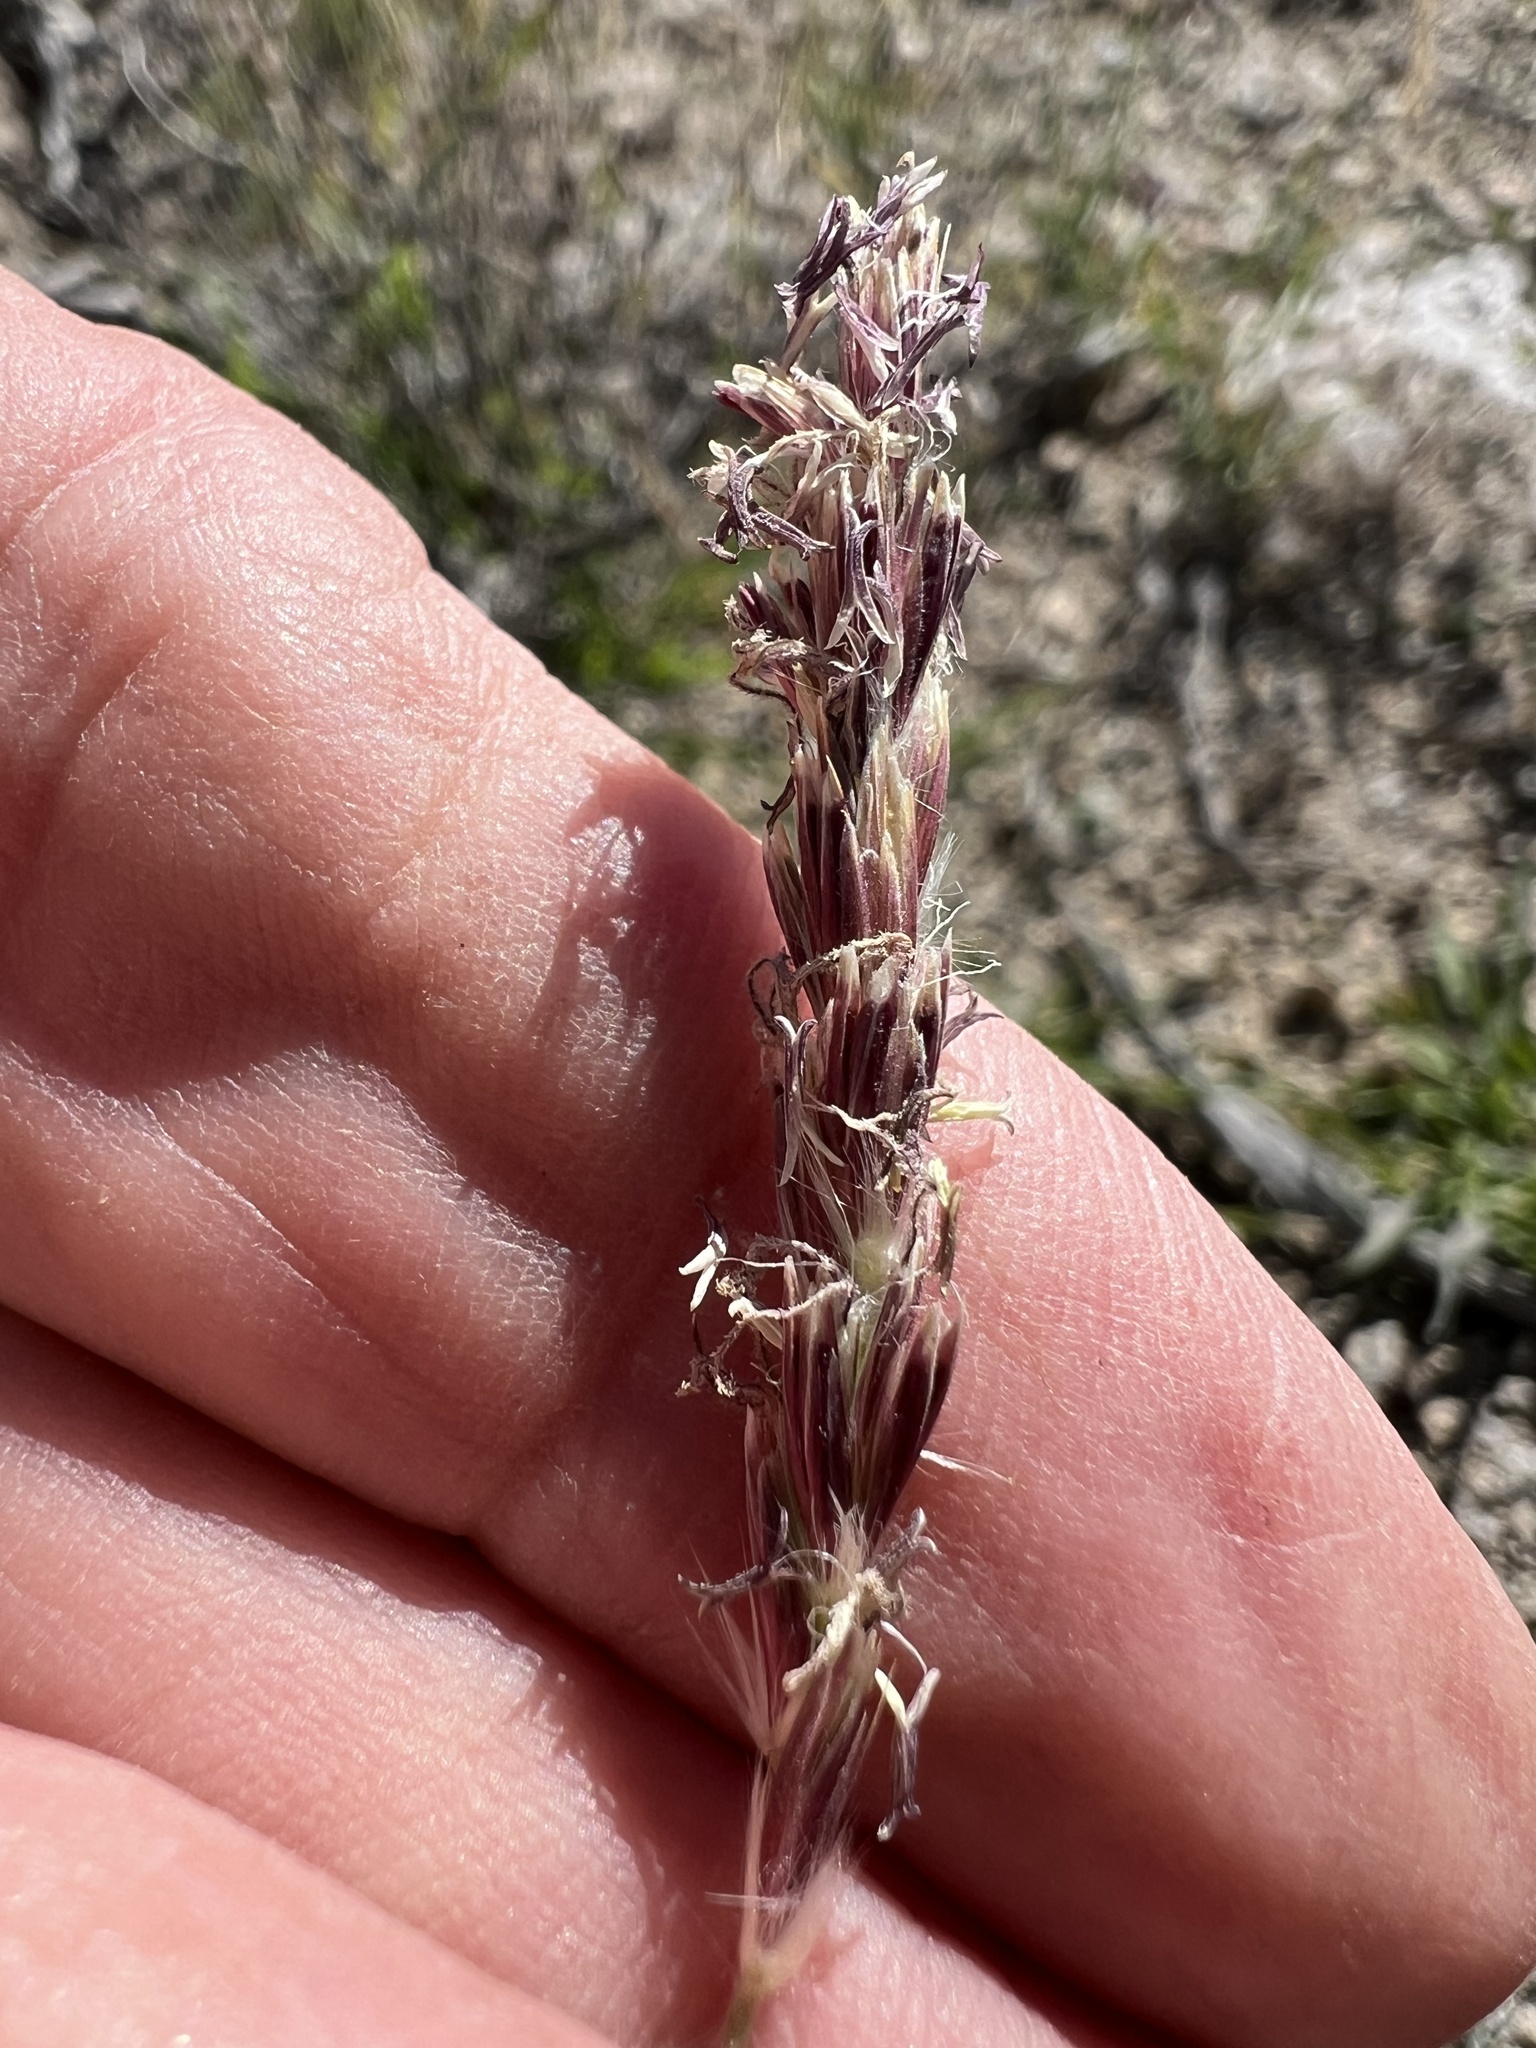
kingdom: Plantae
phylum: Tracheophyta
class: Liliopsida
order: Poales
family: Poaceae
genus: Hilaria
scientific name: Hilaria jamesii
